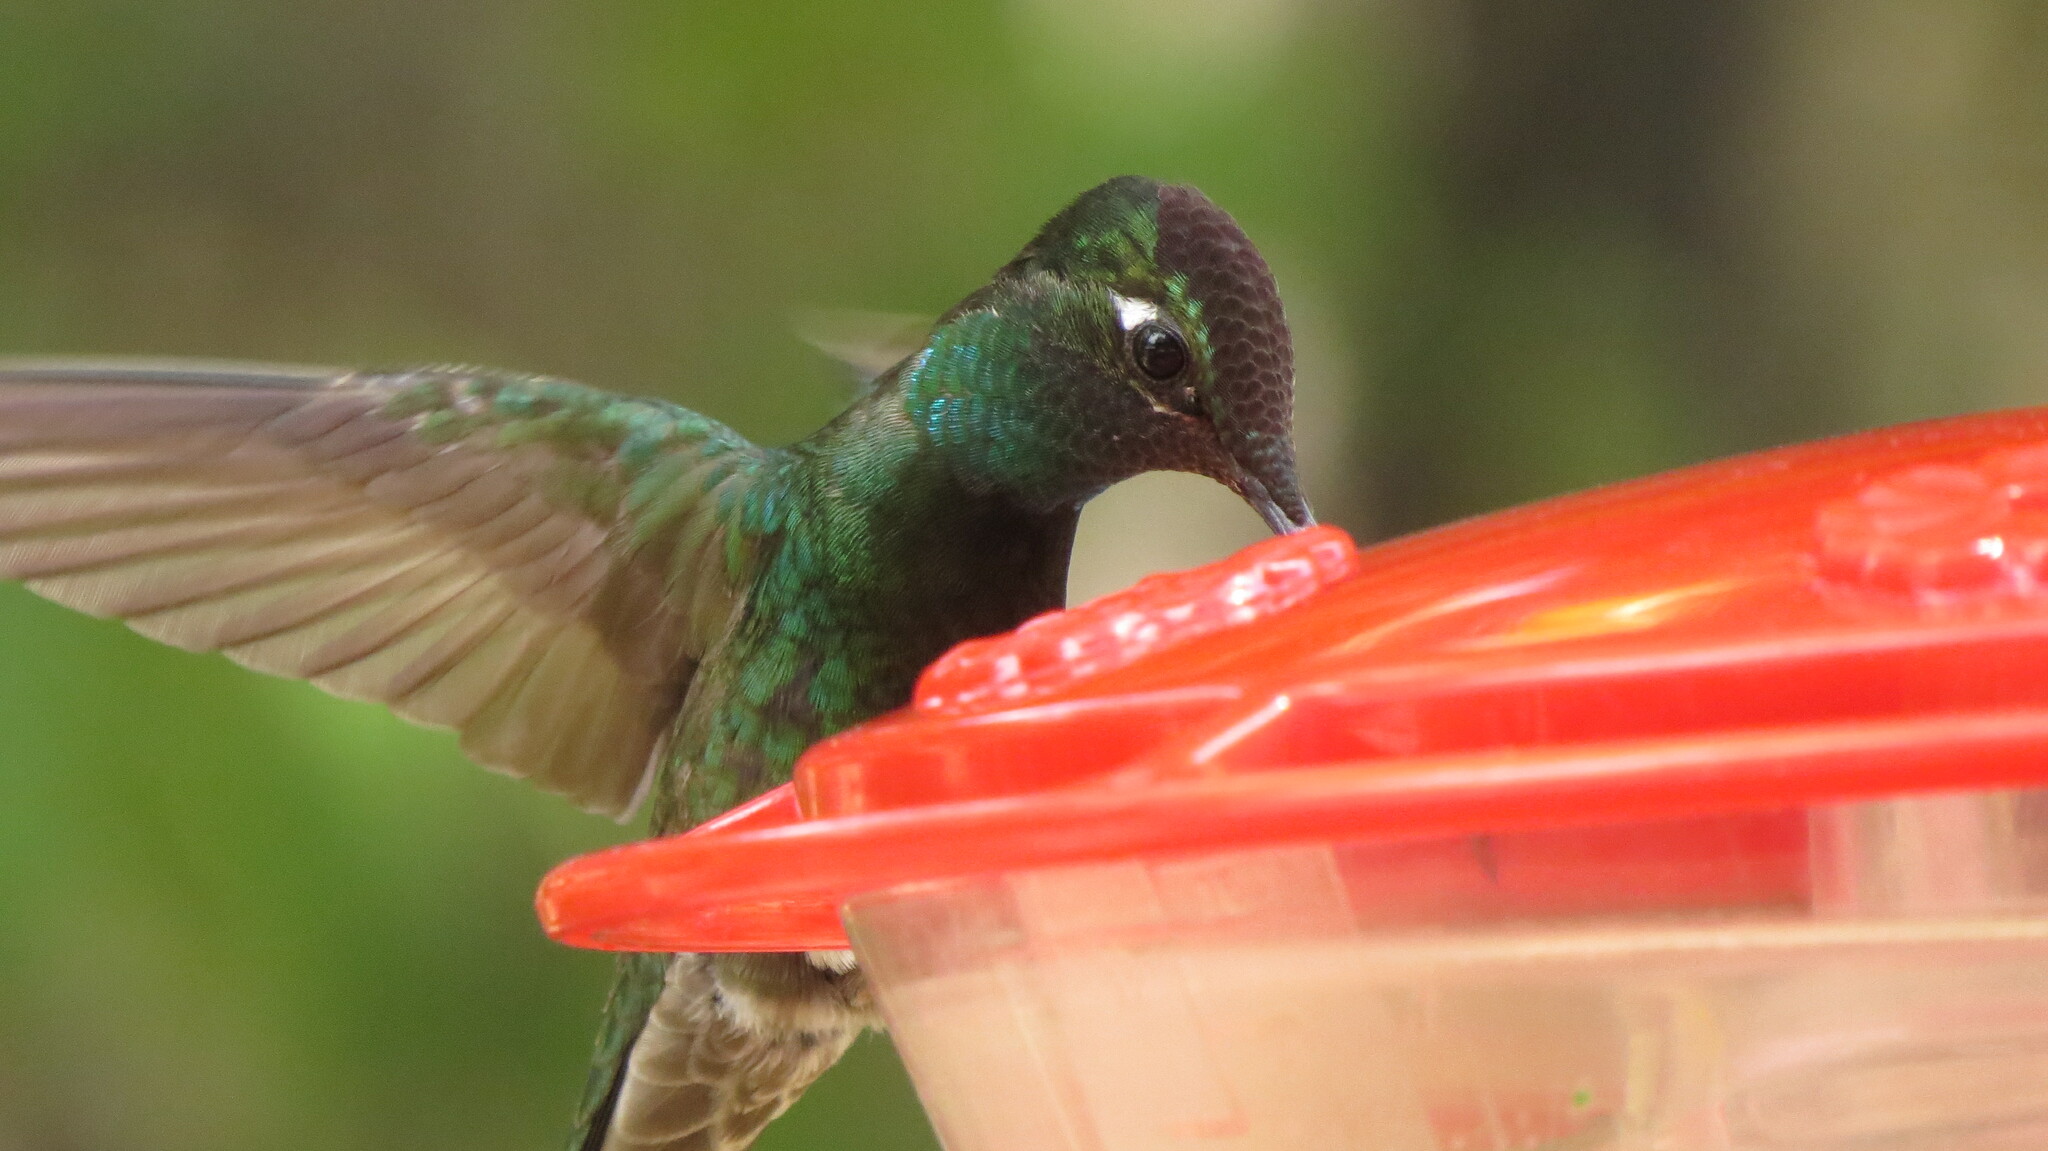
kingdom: Animalia
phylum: Chordata
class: Aves
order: Apodiformes
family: Trochilidae
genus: Eugenes
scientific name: Eugenes fulgens
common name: Magnificent hummingbird
